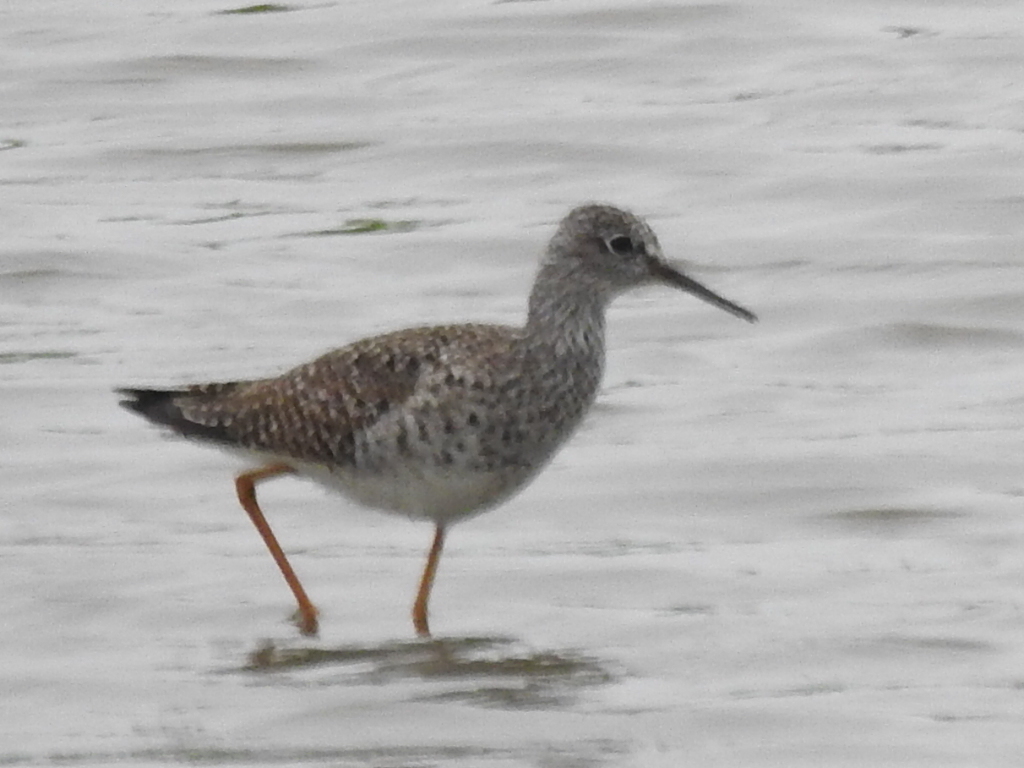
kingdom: Animalia
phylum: Chordata
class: Aves
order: Charadriiformes
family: Scolopacidae
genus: Tringa
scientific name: Tringa flavipes
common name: Lesser yellowlegs
